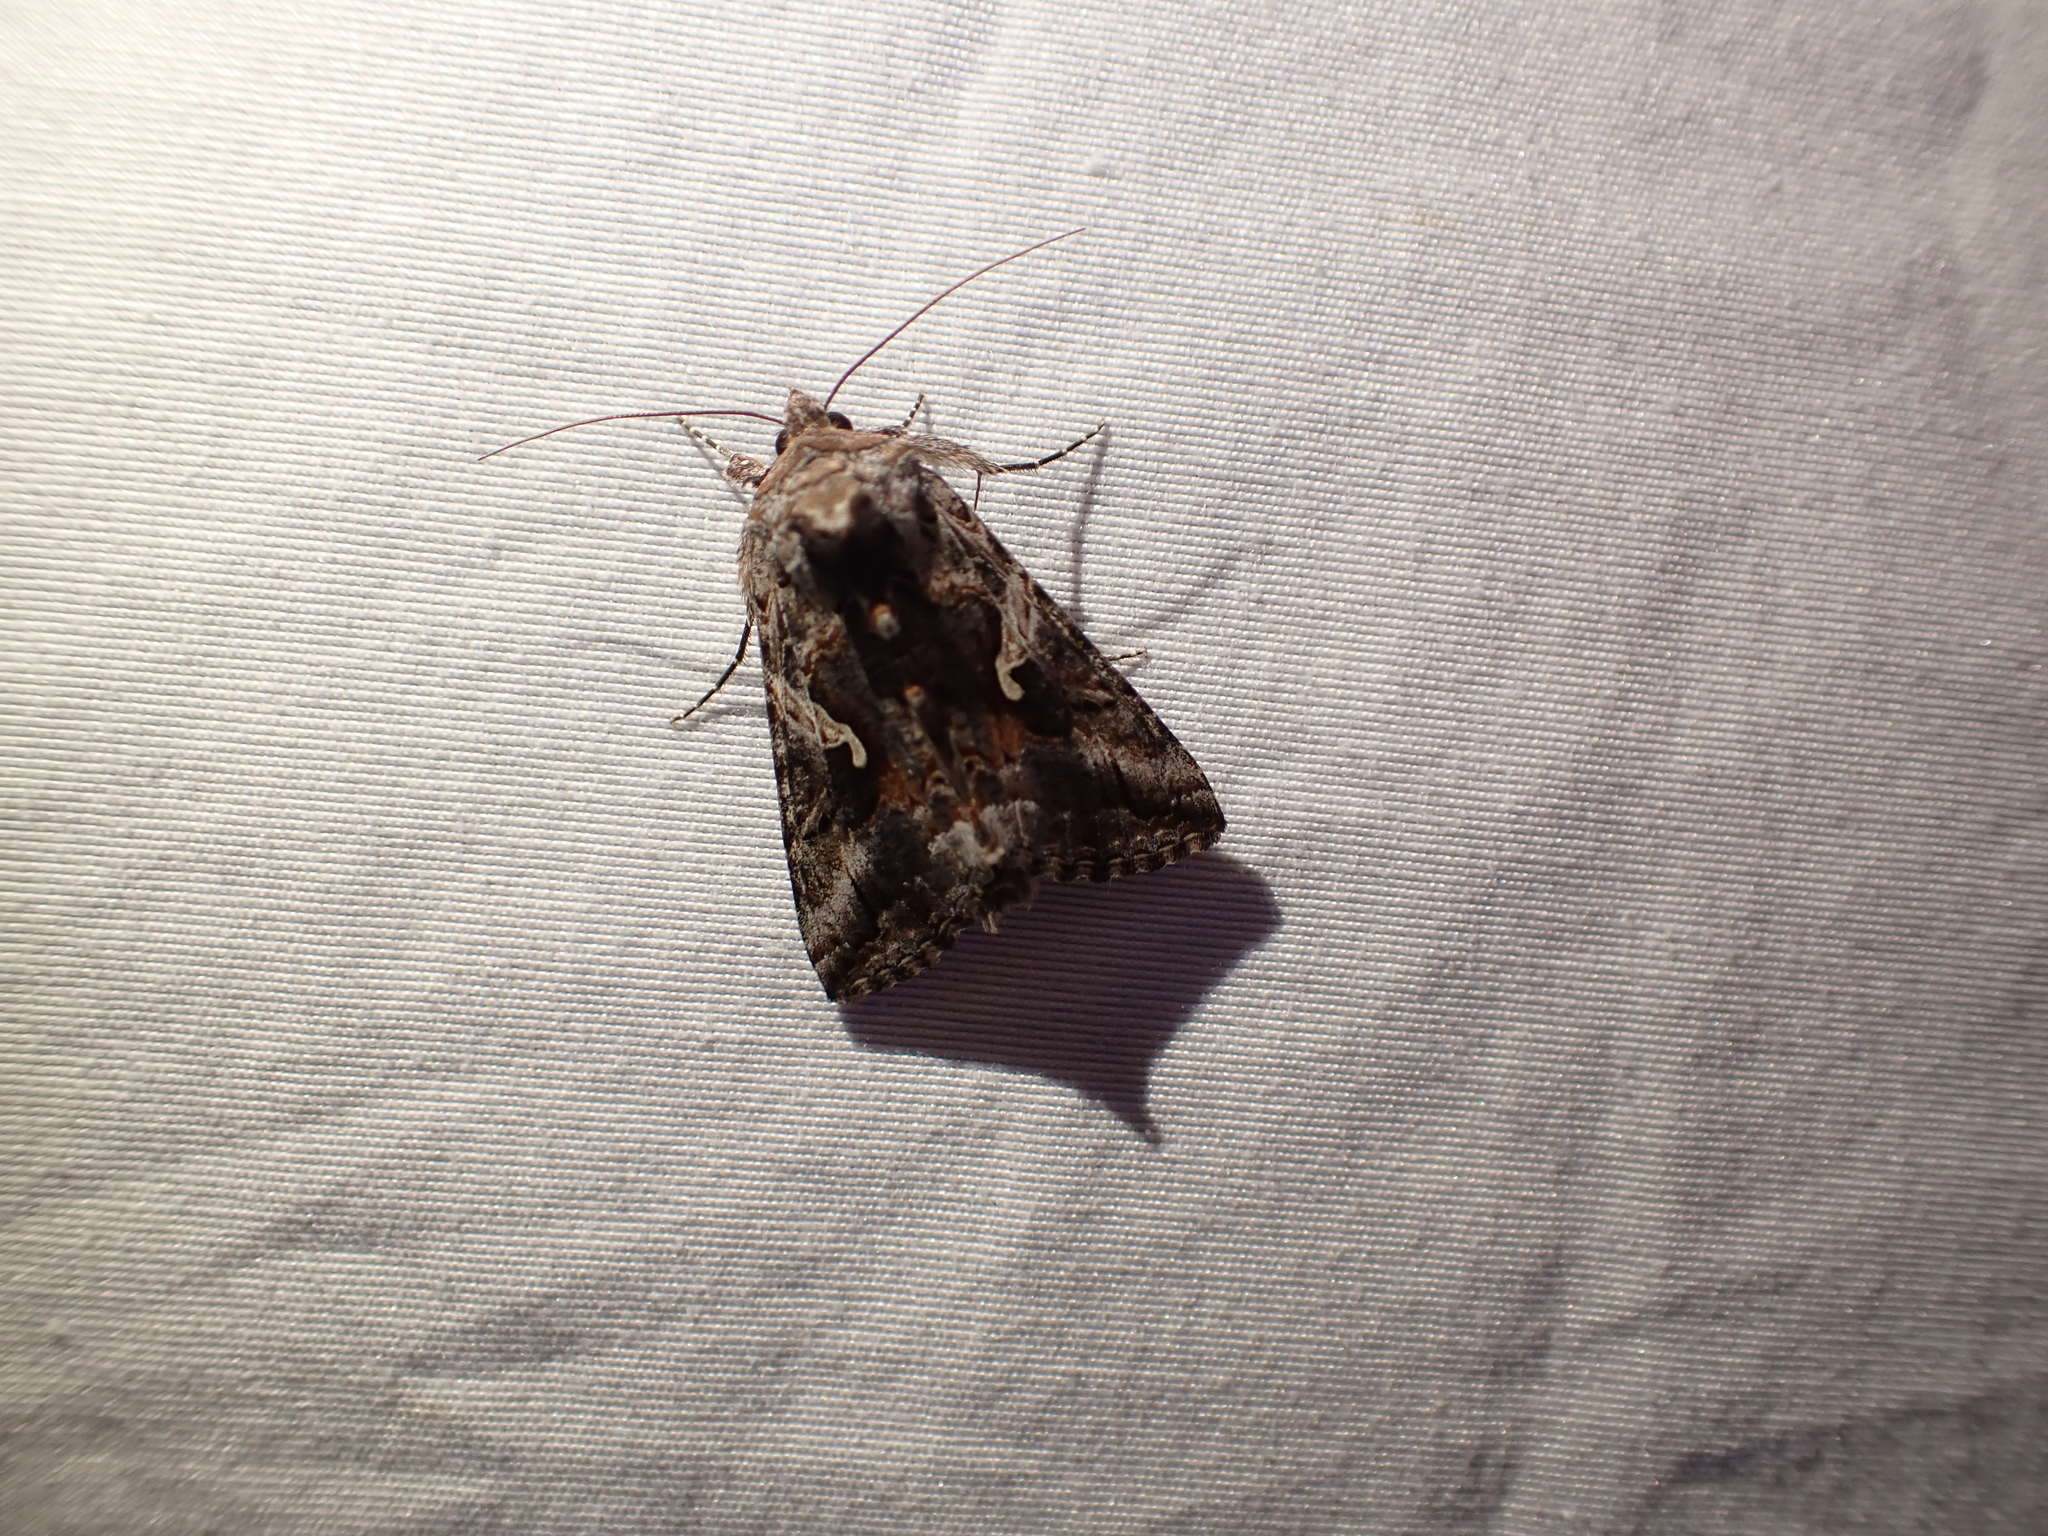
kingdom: Animalia
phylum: Arthropoda
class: Insecta
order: Lepidoptera
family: Noctuidae
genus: Autographa
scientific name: Autographa californica
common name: Alfalfa looper
